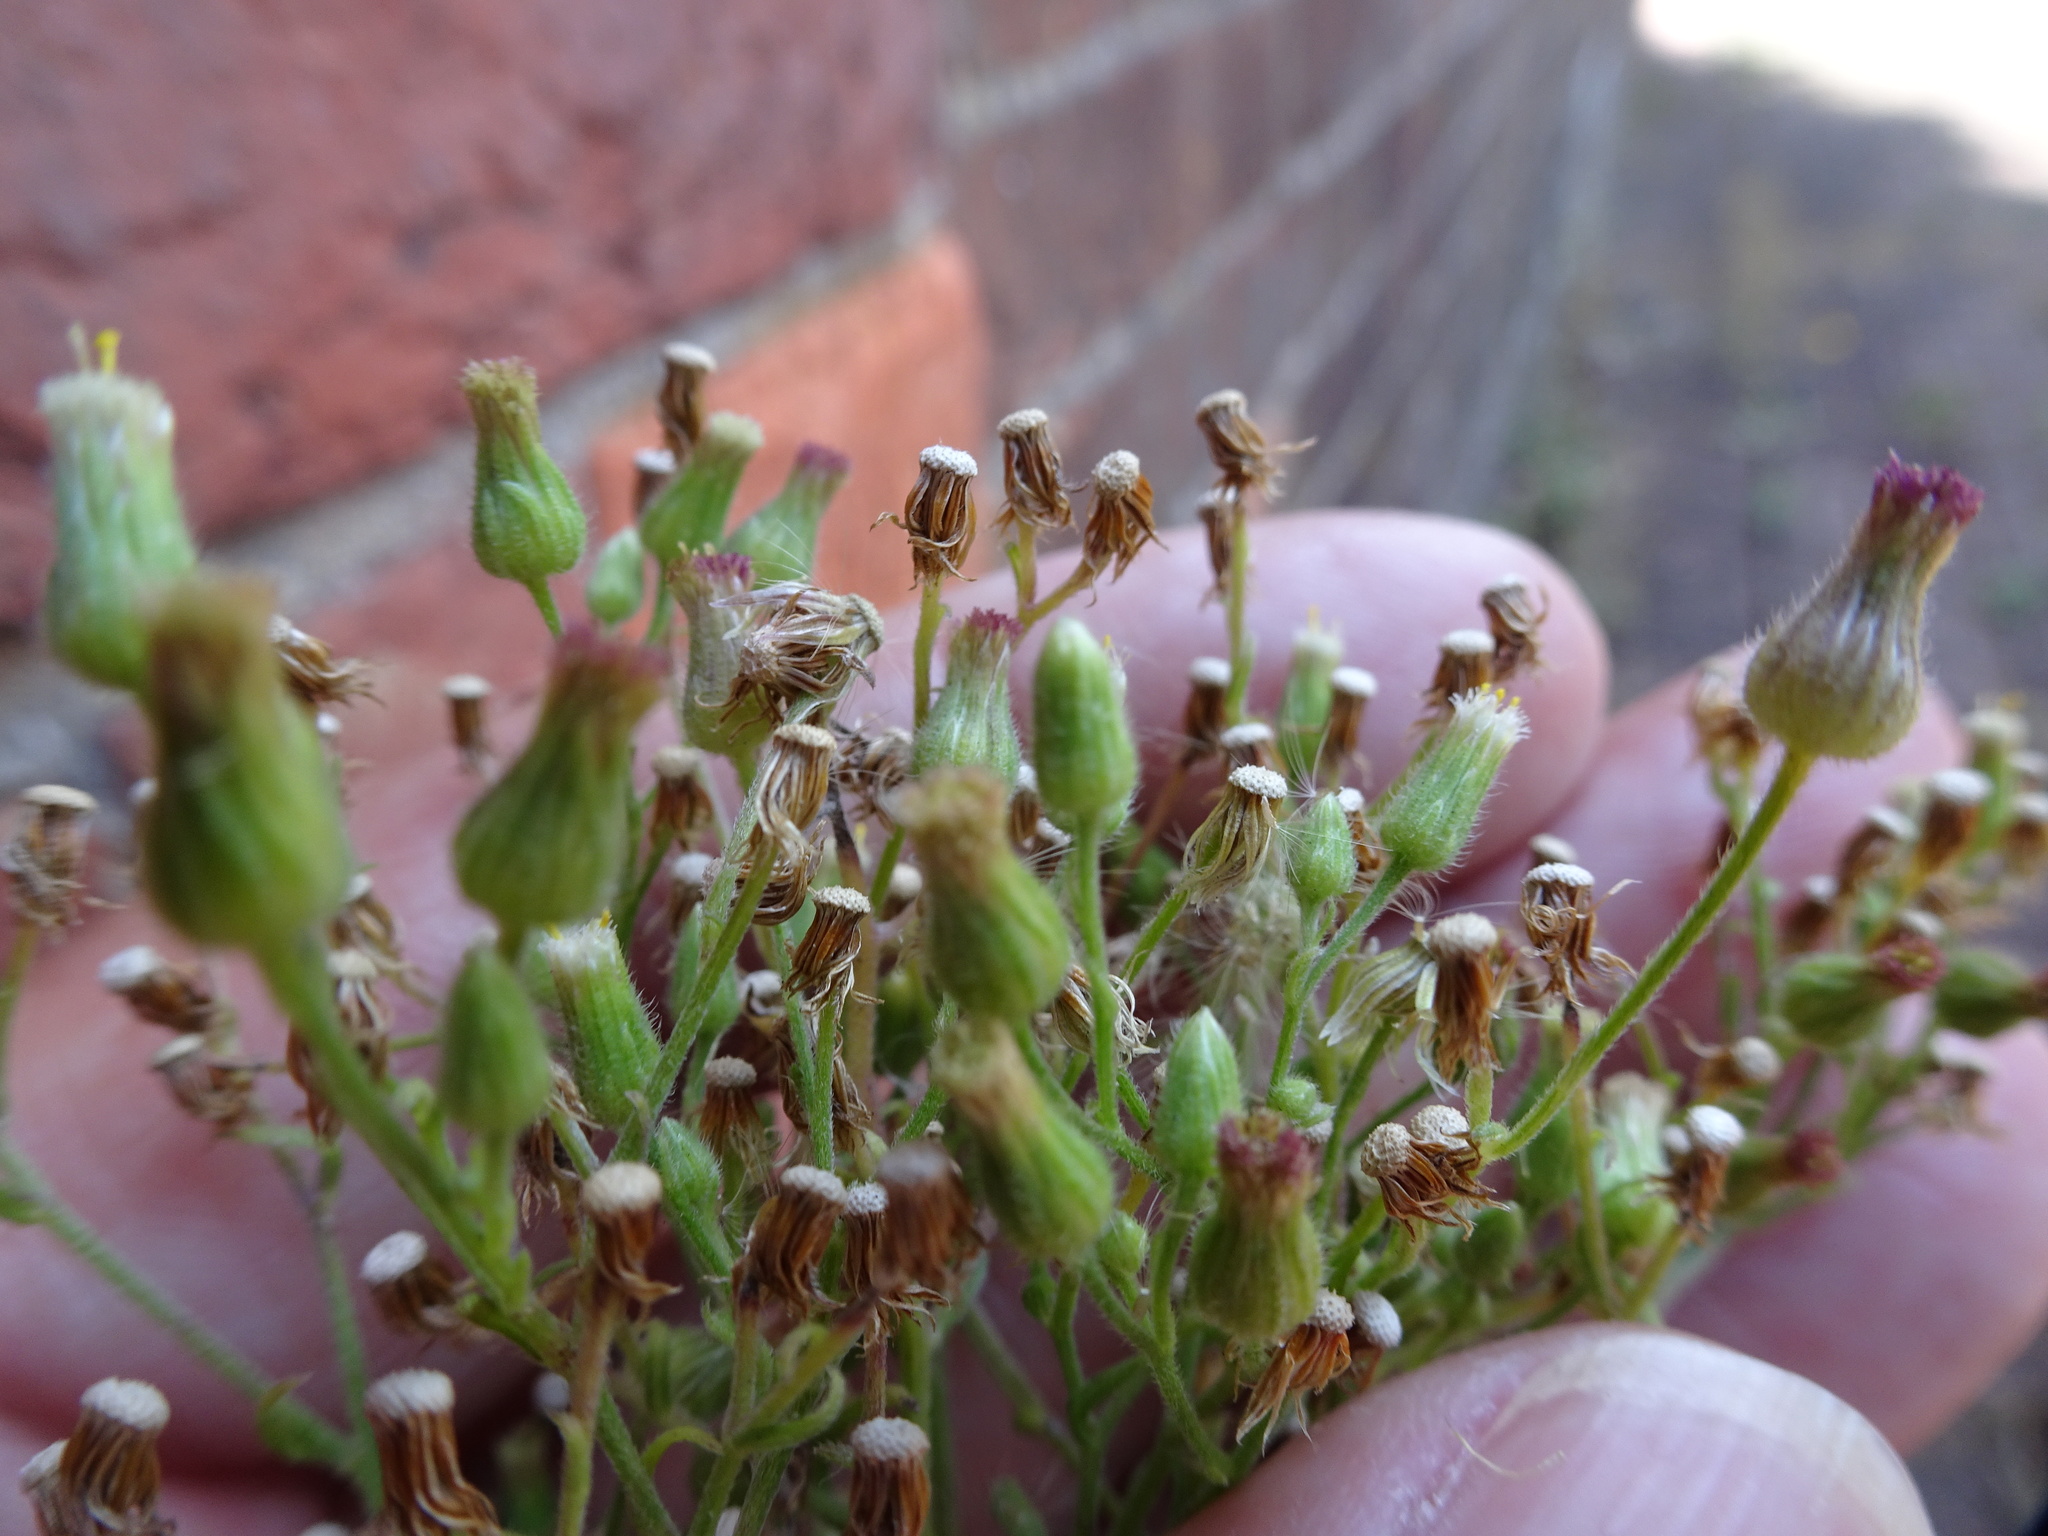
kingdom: Plantae
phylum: Tracheophyta
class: Magnoliopsida
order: Asterales
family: Asteraceae
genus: Erigeron
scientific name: Erigeron sumatrensis
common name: Daisy
